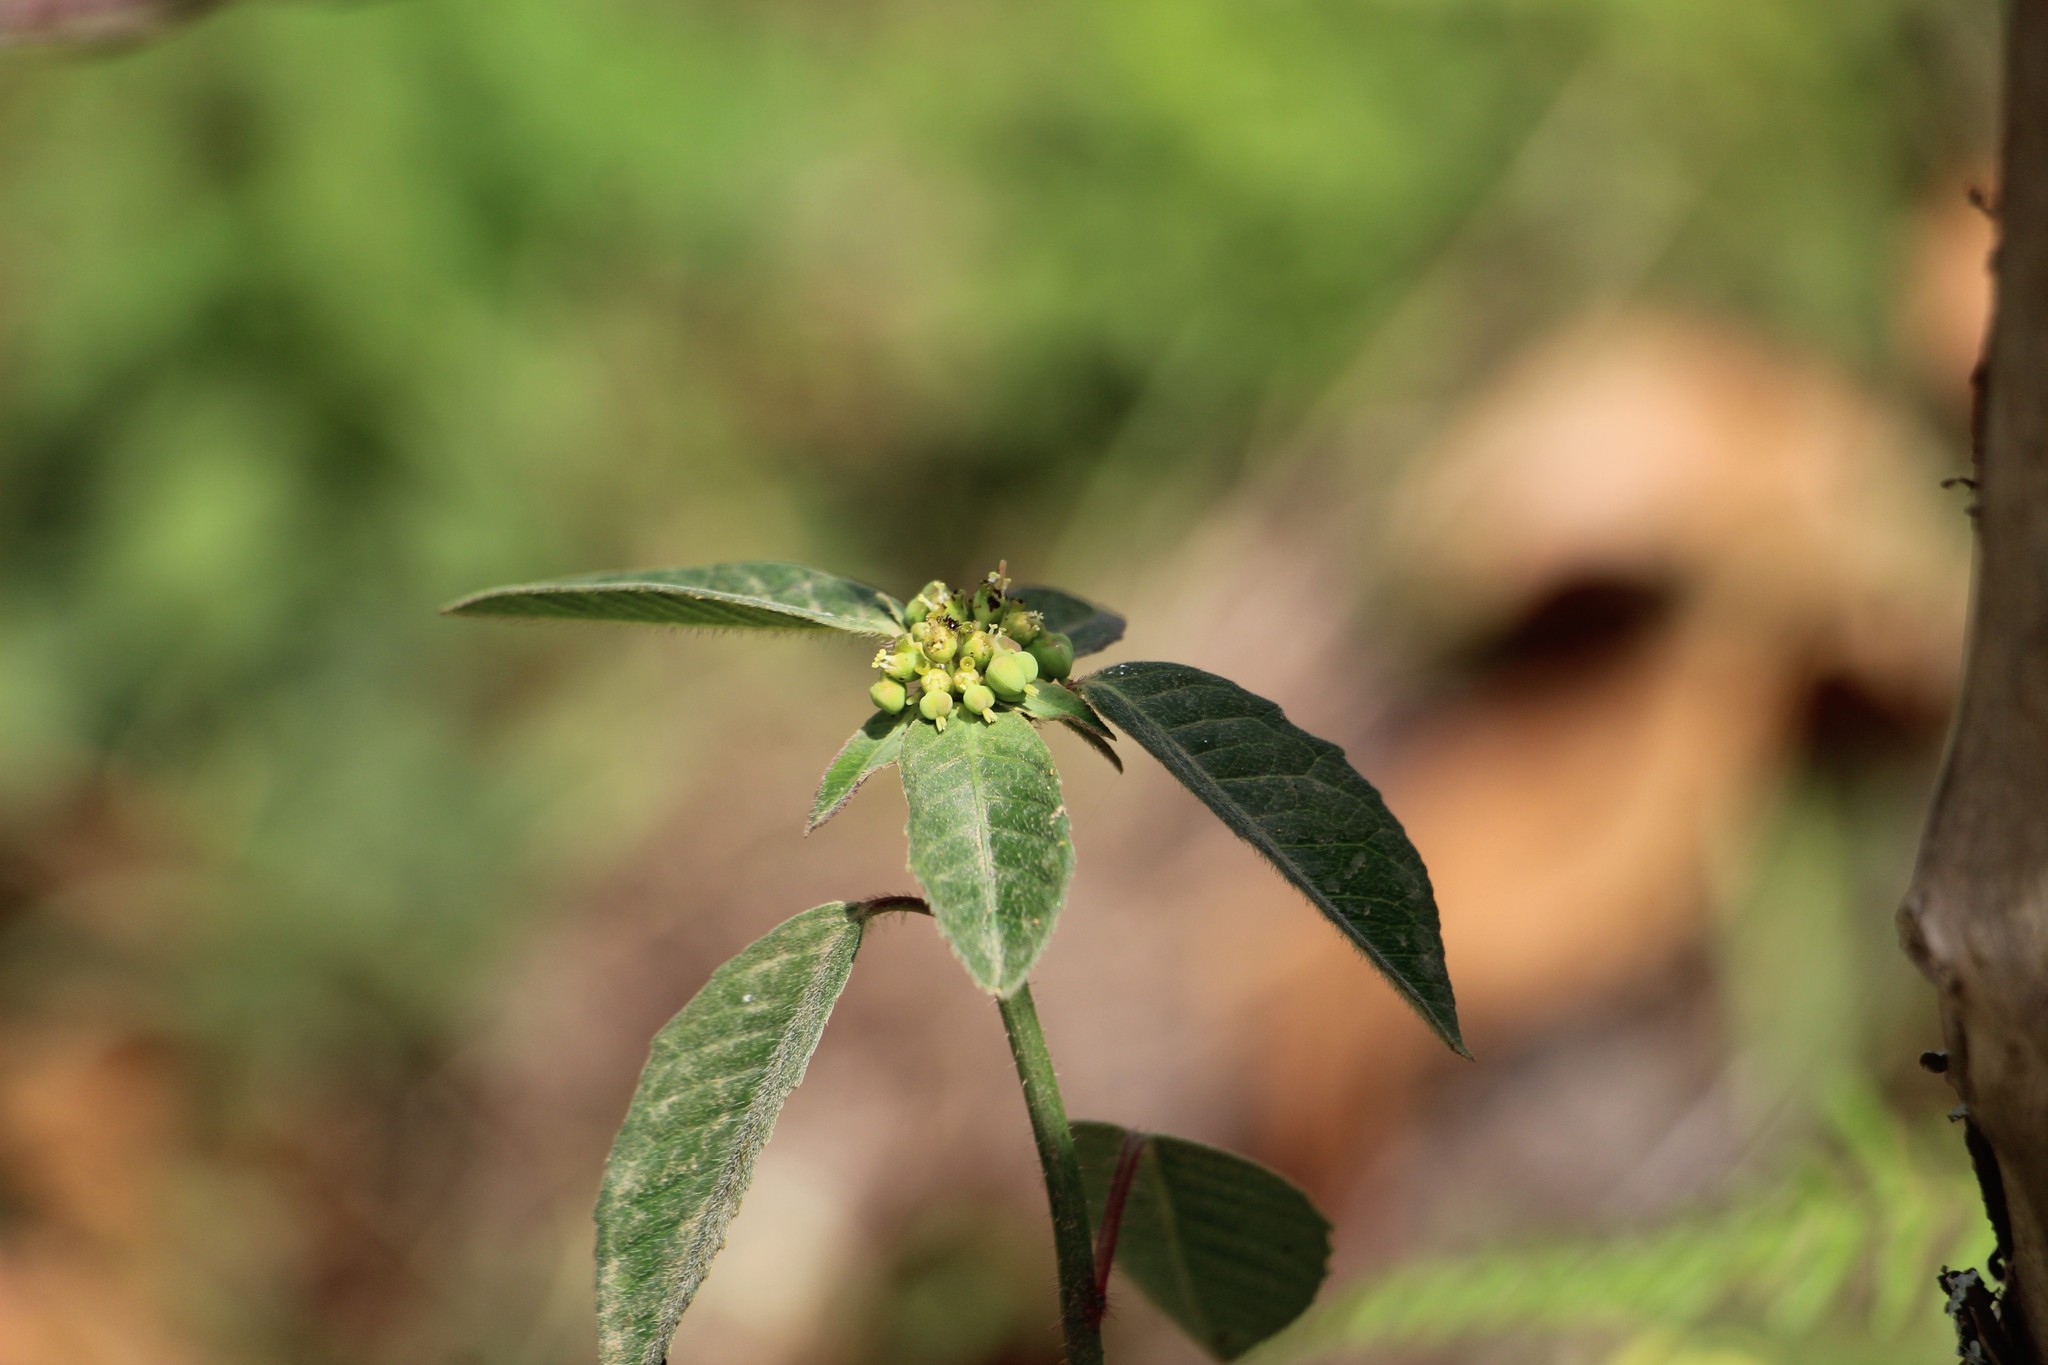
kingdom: Plantae
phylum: Tracheophyta
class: Magnoliopsida
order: Malpighiales
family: Euphorbiaceae
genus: Euphorbia
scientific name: Euphorbia heterophylla
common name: Mexican fireplant
